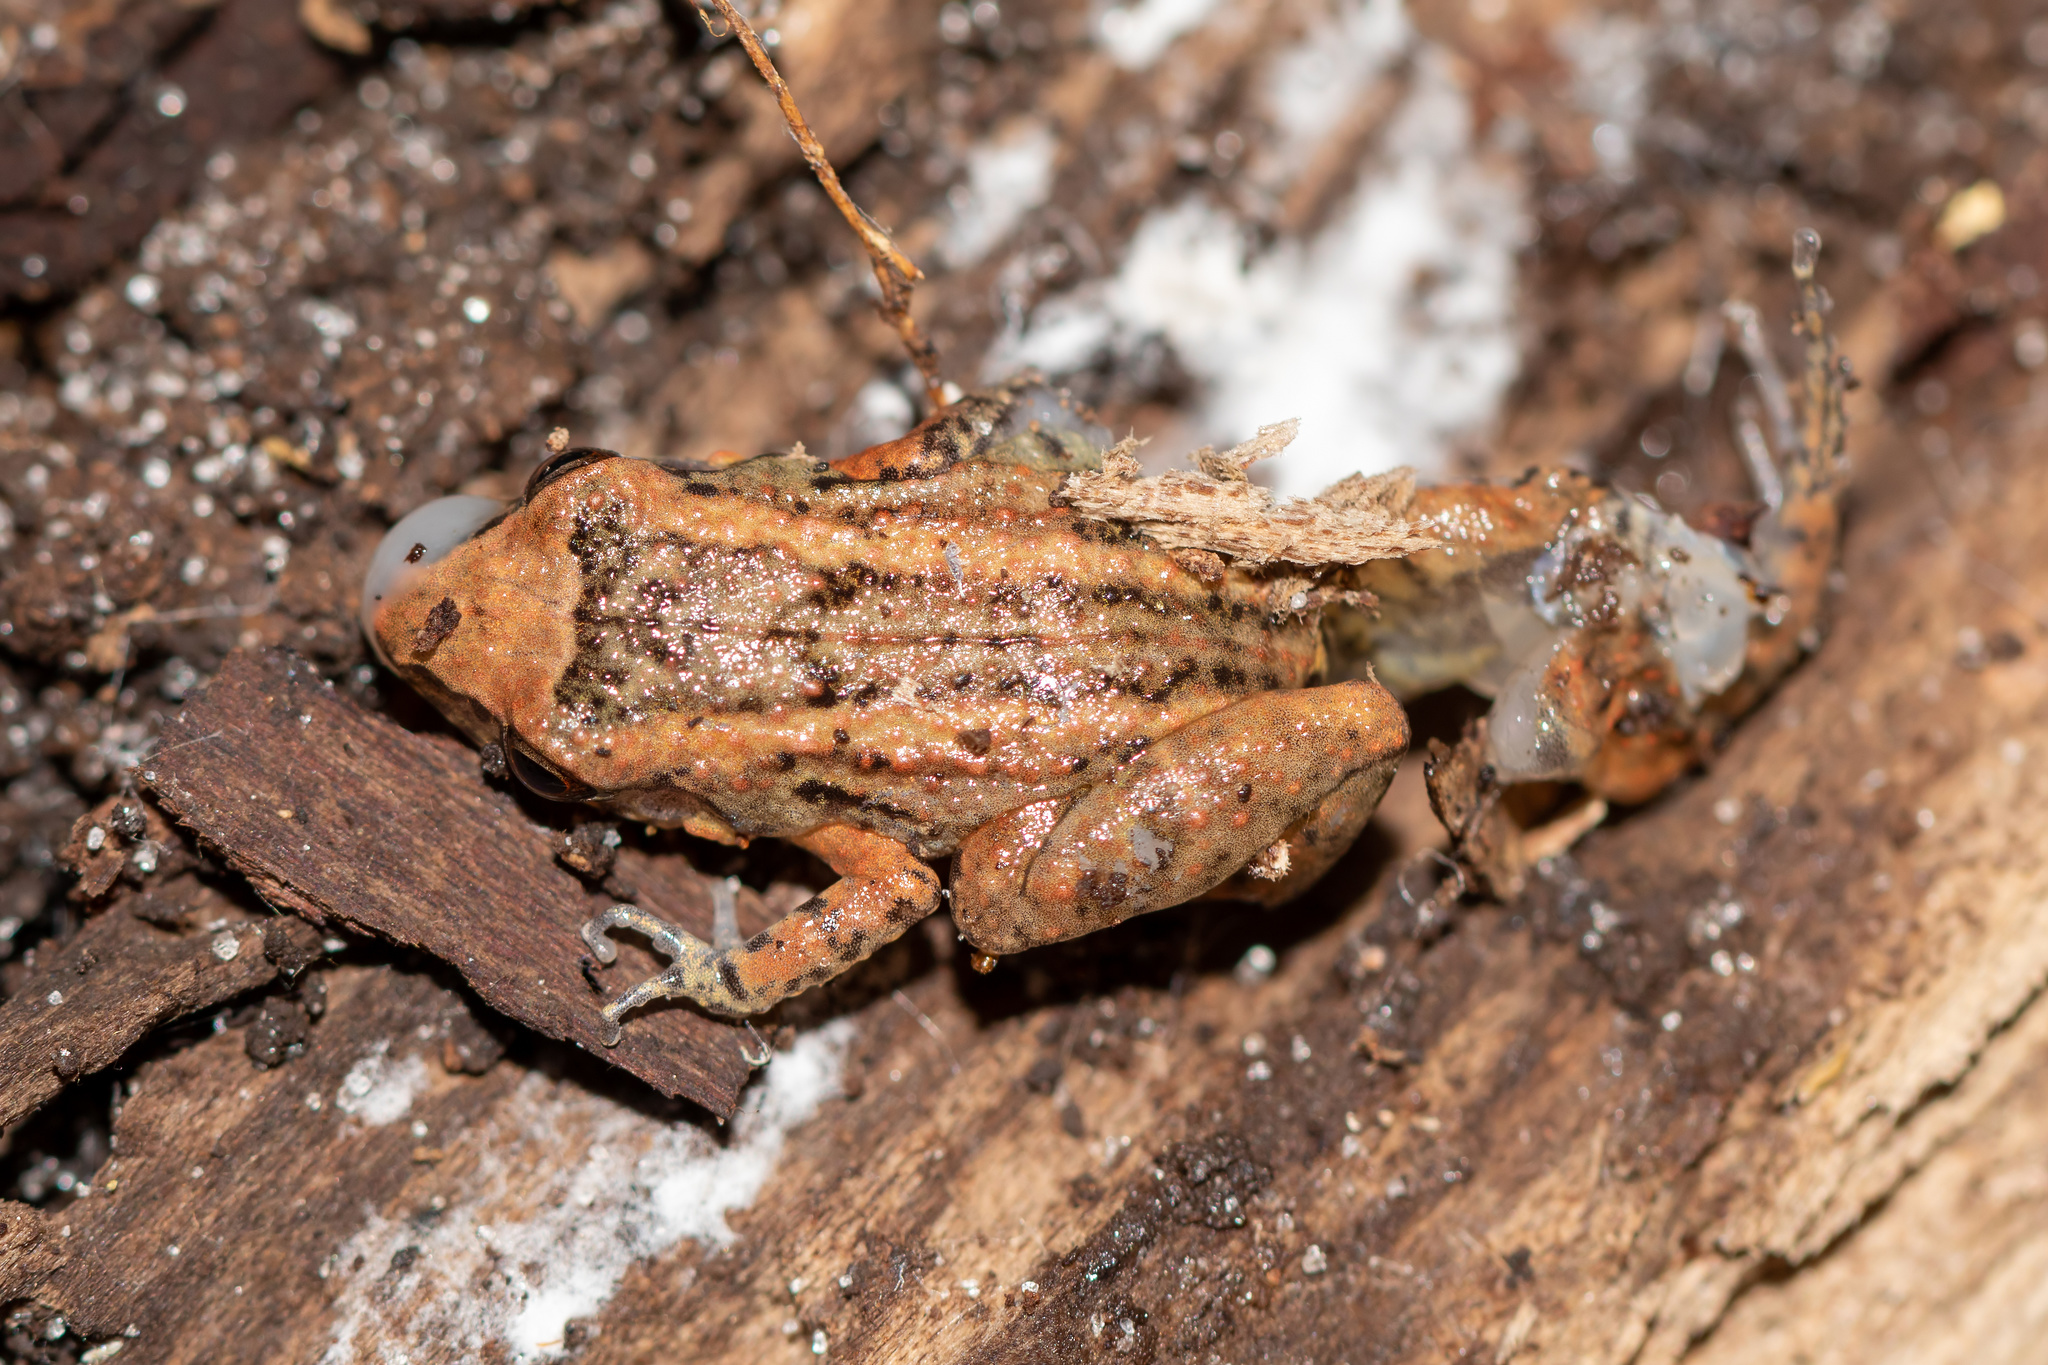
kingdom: Animalia
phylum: Chordata
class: Amphibia
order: Anura
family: Eleutherodactylidae
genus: Eleutherodactylus
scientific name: Eleutherodactylus planirostris
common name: Greenhouse frog
